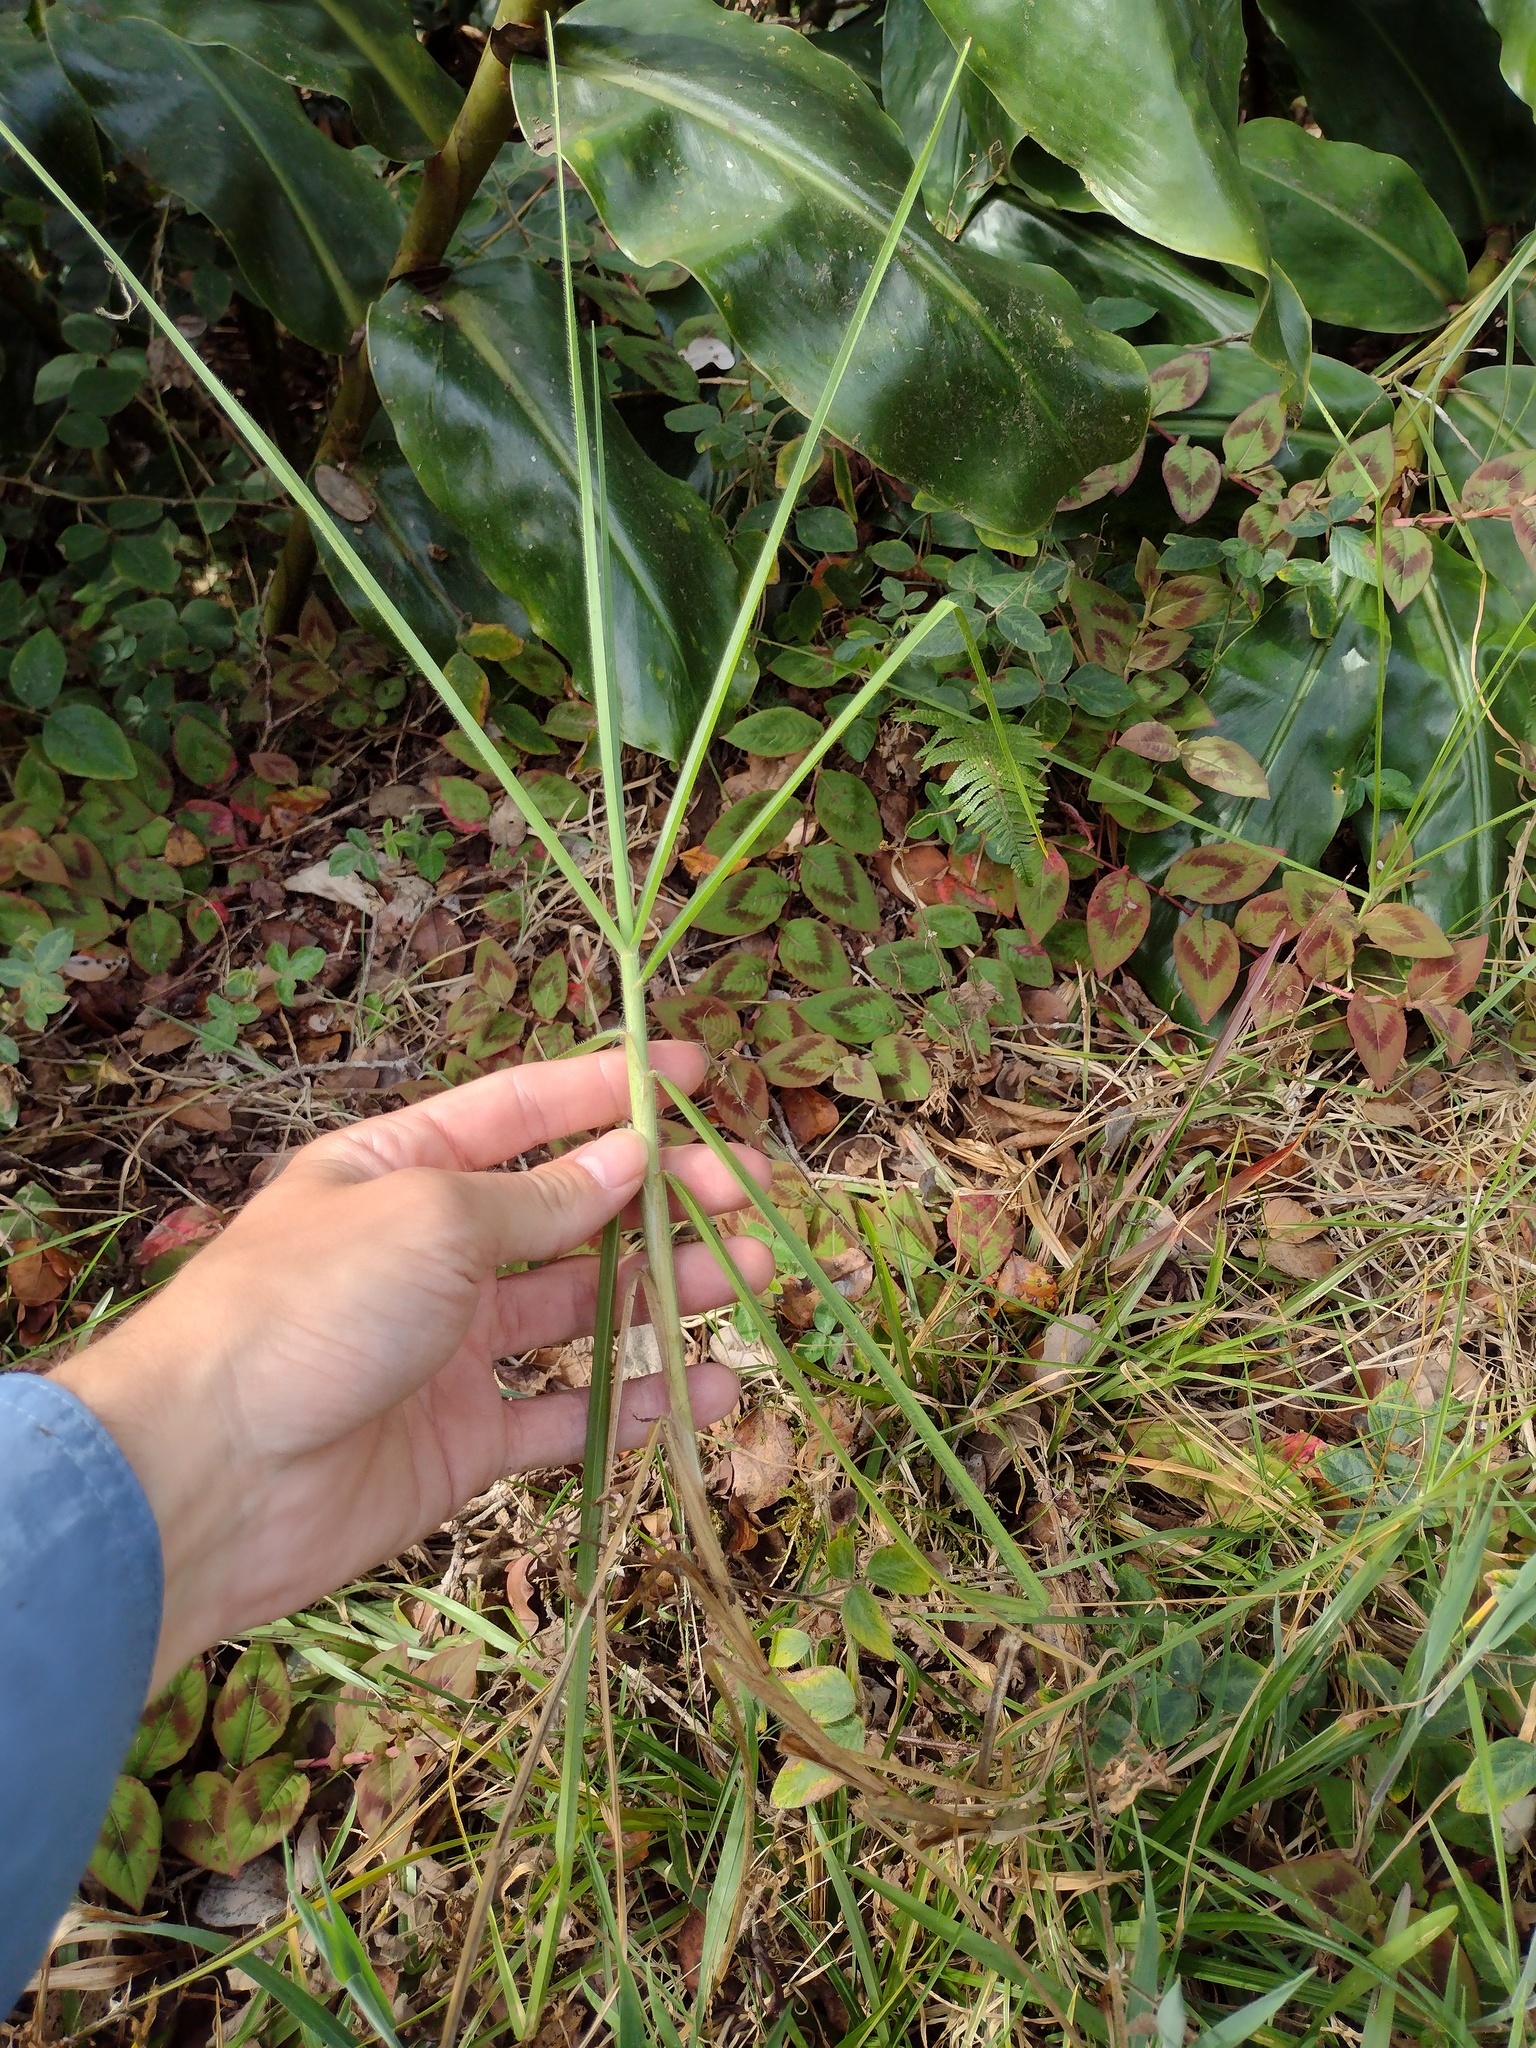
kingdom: Plantae
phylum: Tracheophyta
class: Liliopsida
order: Poales
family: Poaceae
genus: Cenchrus
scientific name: Cenchrus clandestinus
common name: Kikuyugrass
